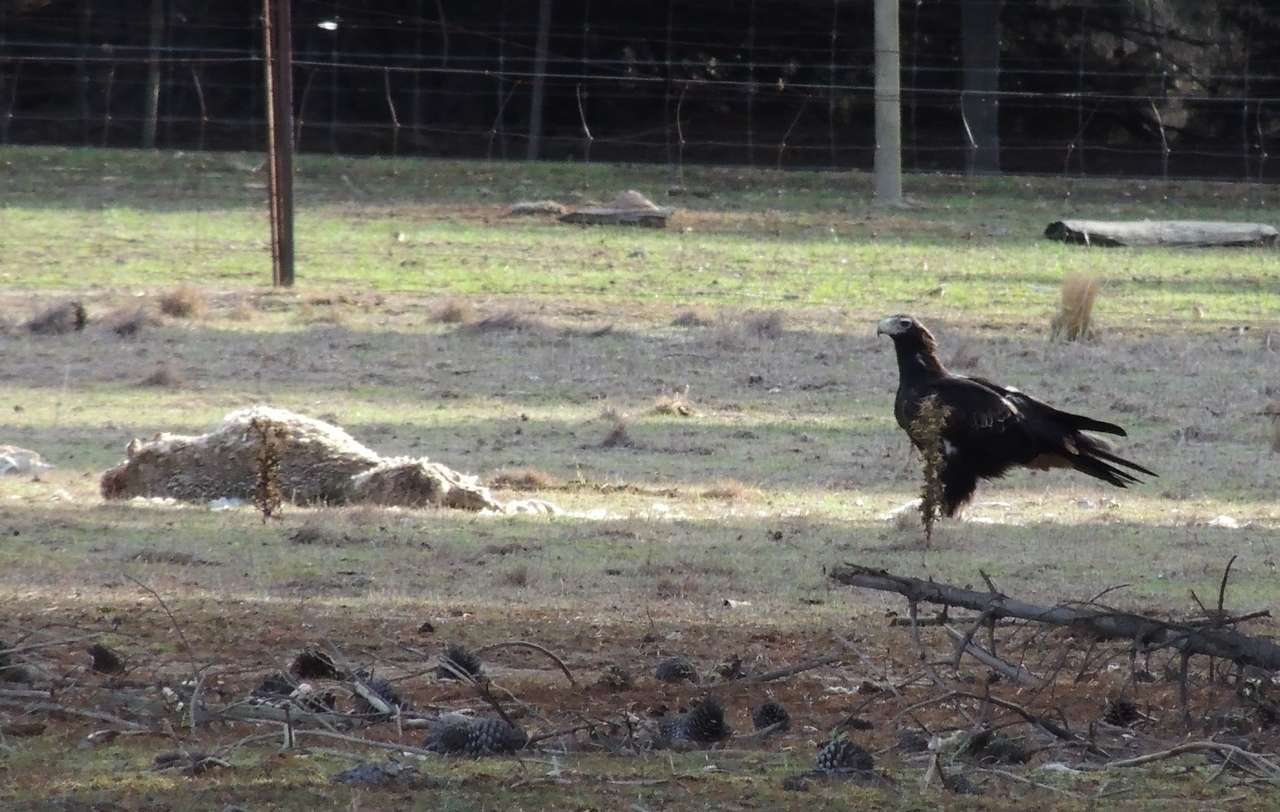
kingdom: Animalia
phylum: Chordata
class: Aves
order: Accipitriformes
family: Accipitridae
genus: Aquila
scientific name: Aquila audax
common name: Wedge-tailed eagle
